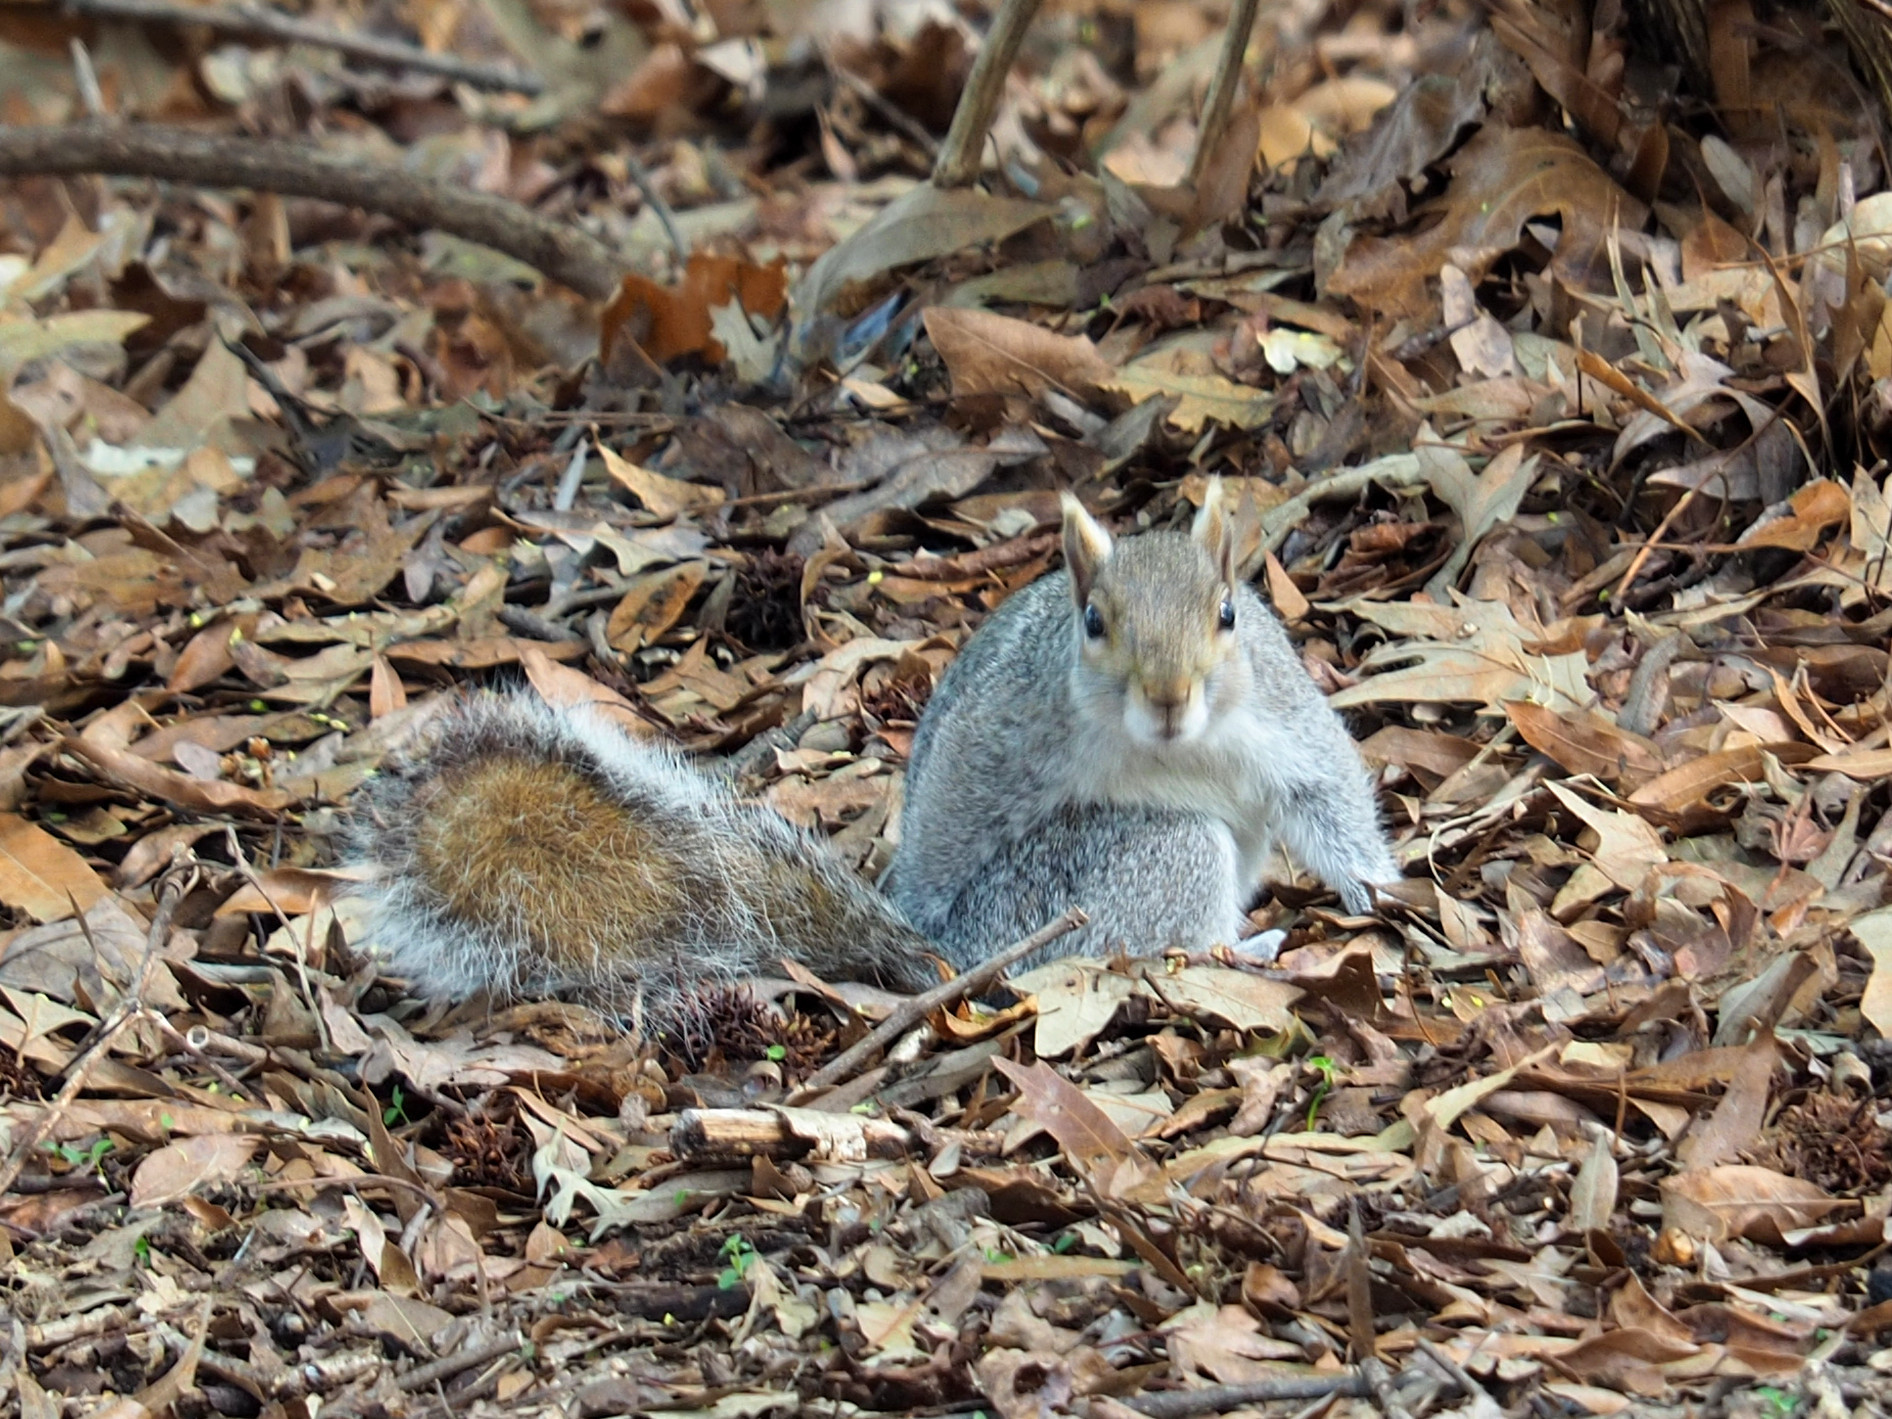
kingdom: Animalia
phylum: Chordata
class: Mammalia
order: Rodentia
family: Sciuridae
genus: Sciurus
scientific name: Sciurus carolinensis
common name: Eastern gray squirrel
